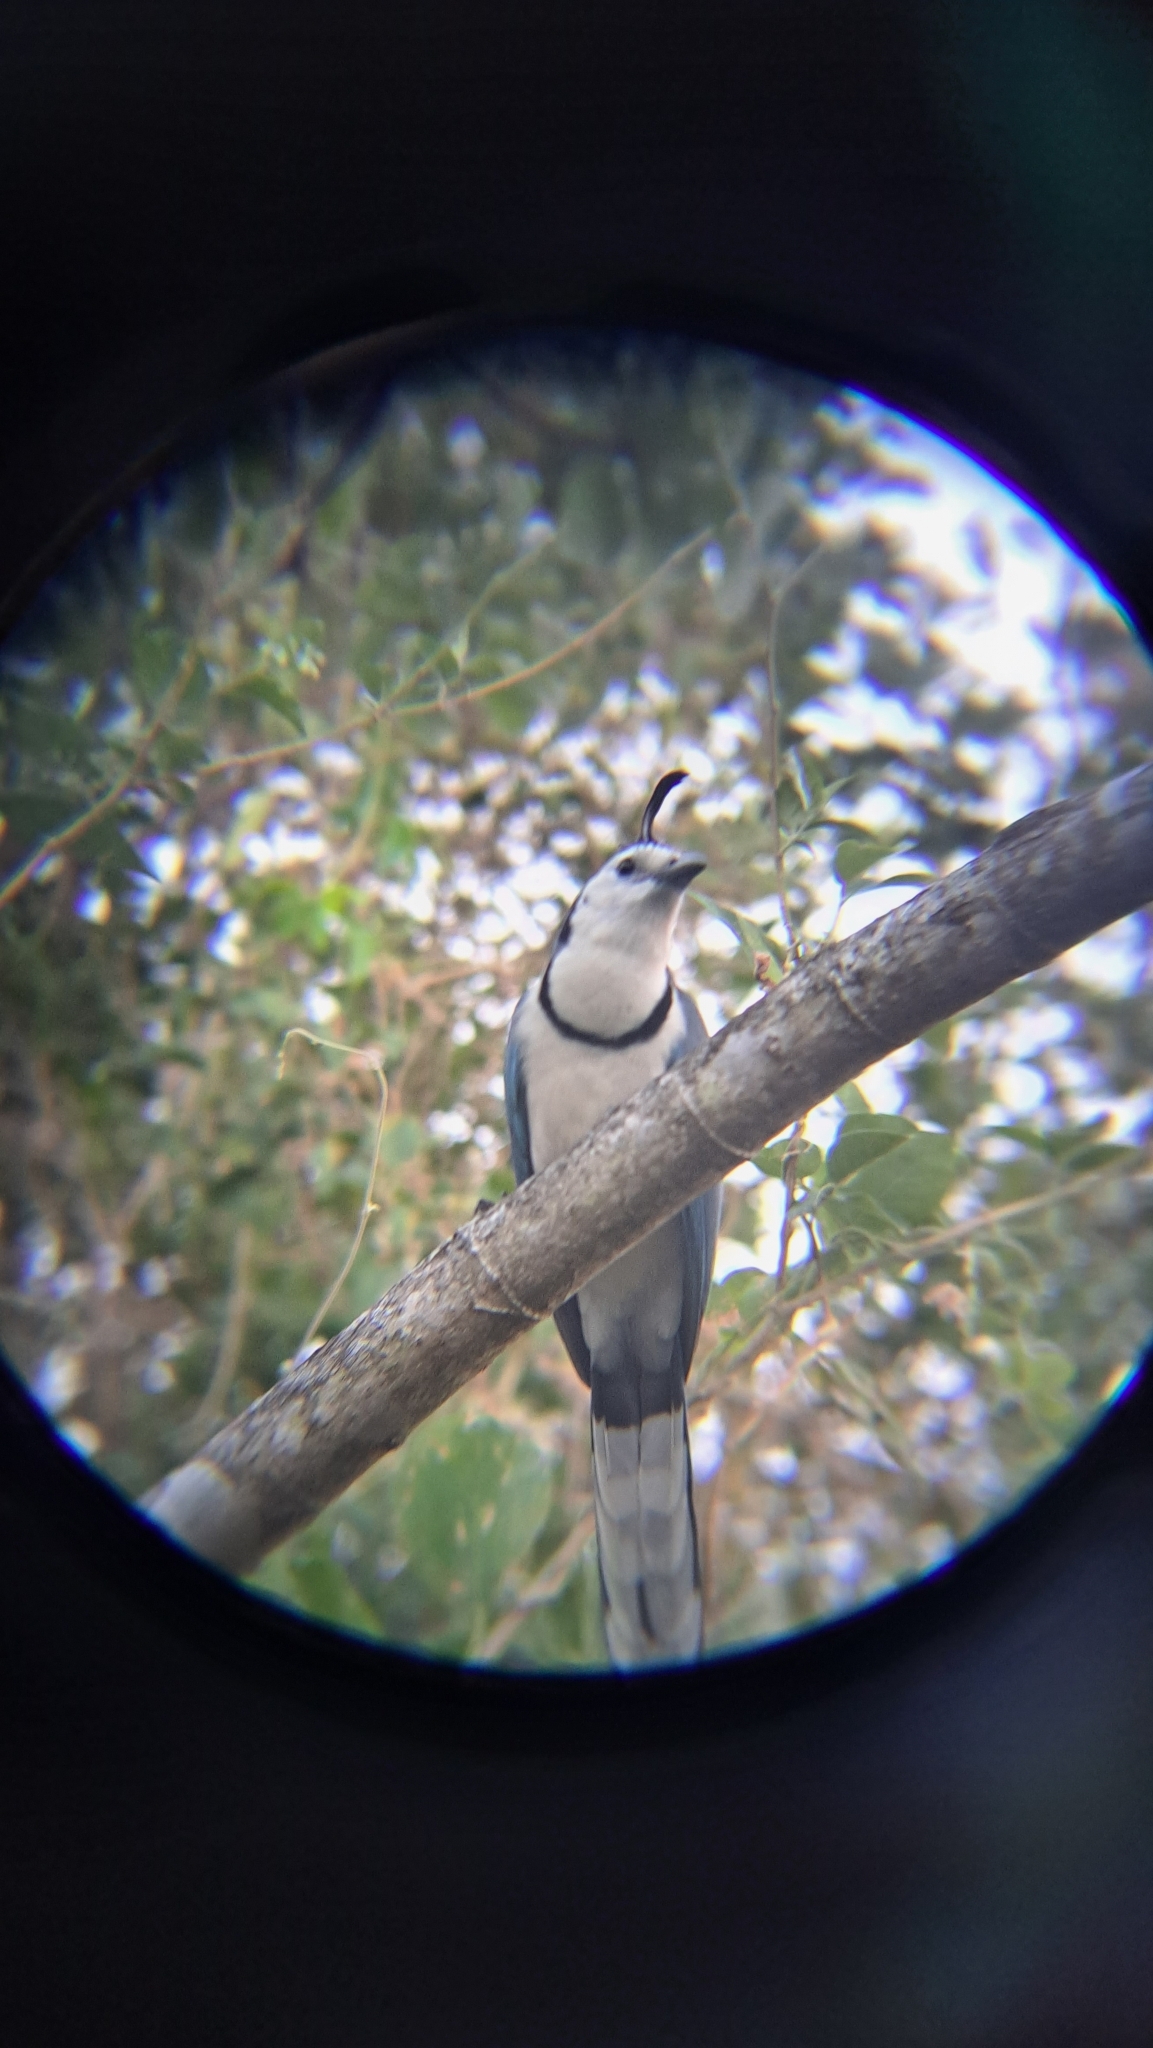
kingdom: Animalia
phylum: Chordata
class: Aves
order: Passeriformes
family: Corvidae
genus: Calocitta
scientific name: Calocitta formosa
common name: White-throated magpie-jay
